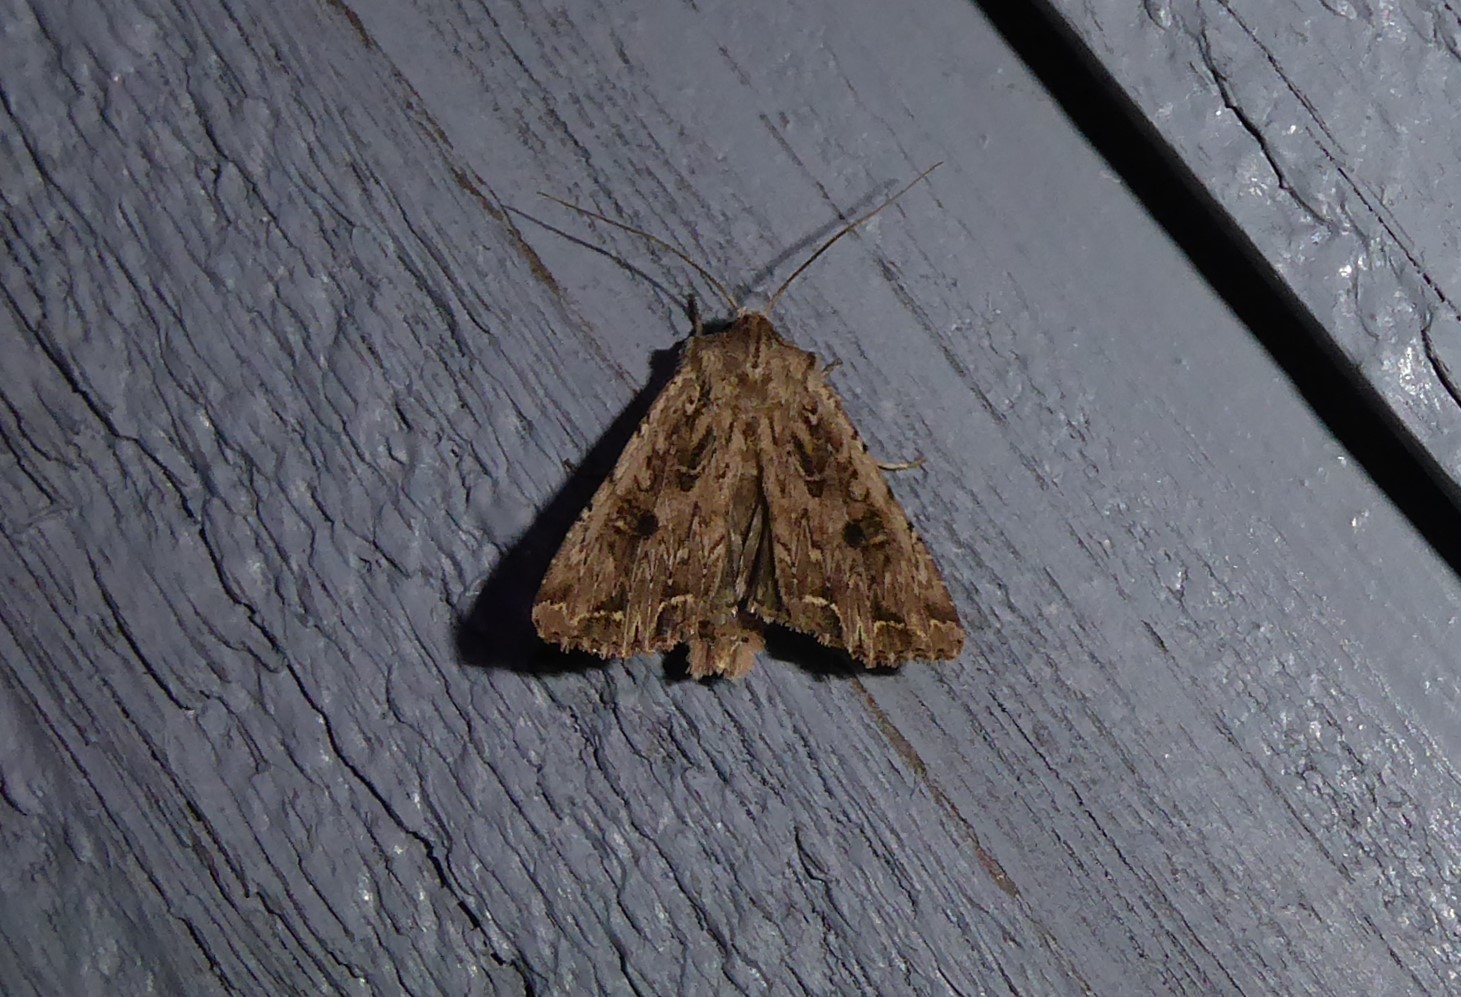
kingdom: Animalia
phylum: Arthropoda
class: Insecta
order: Lepidoptera
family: Noctuidae
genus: Ichneutica
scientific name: Ichneutica lignana
